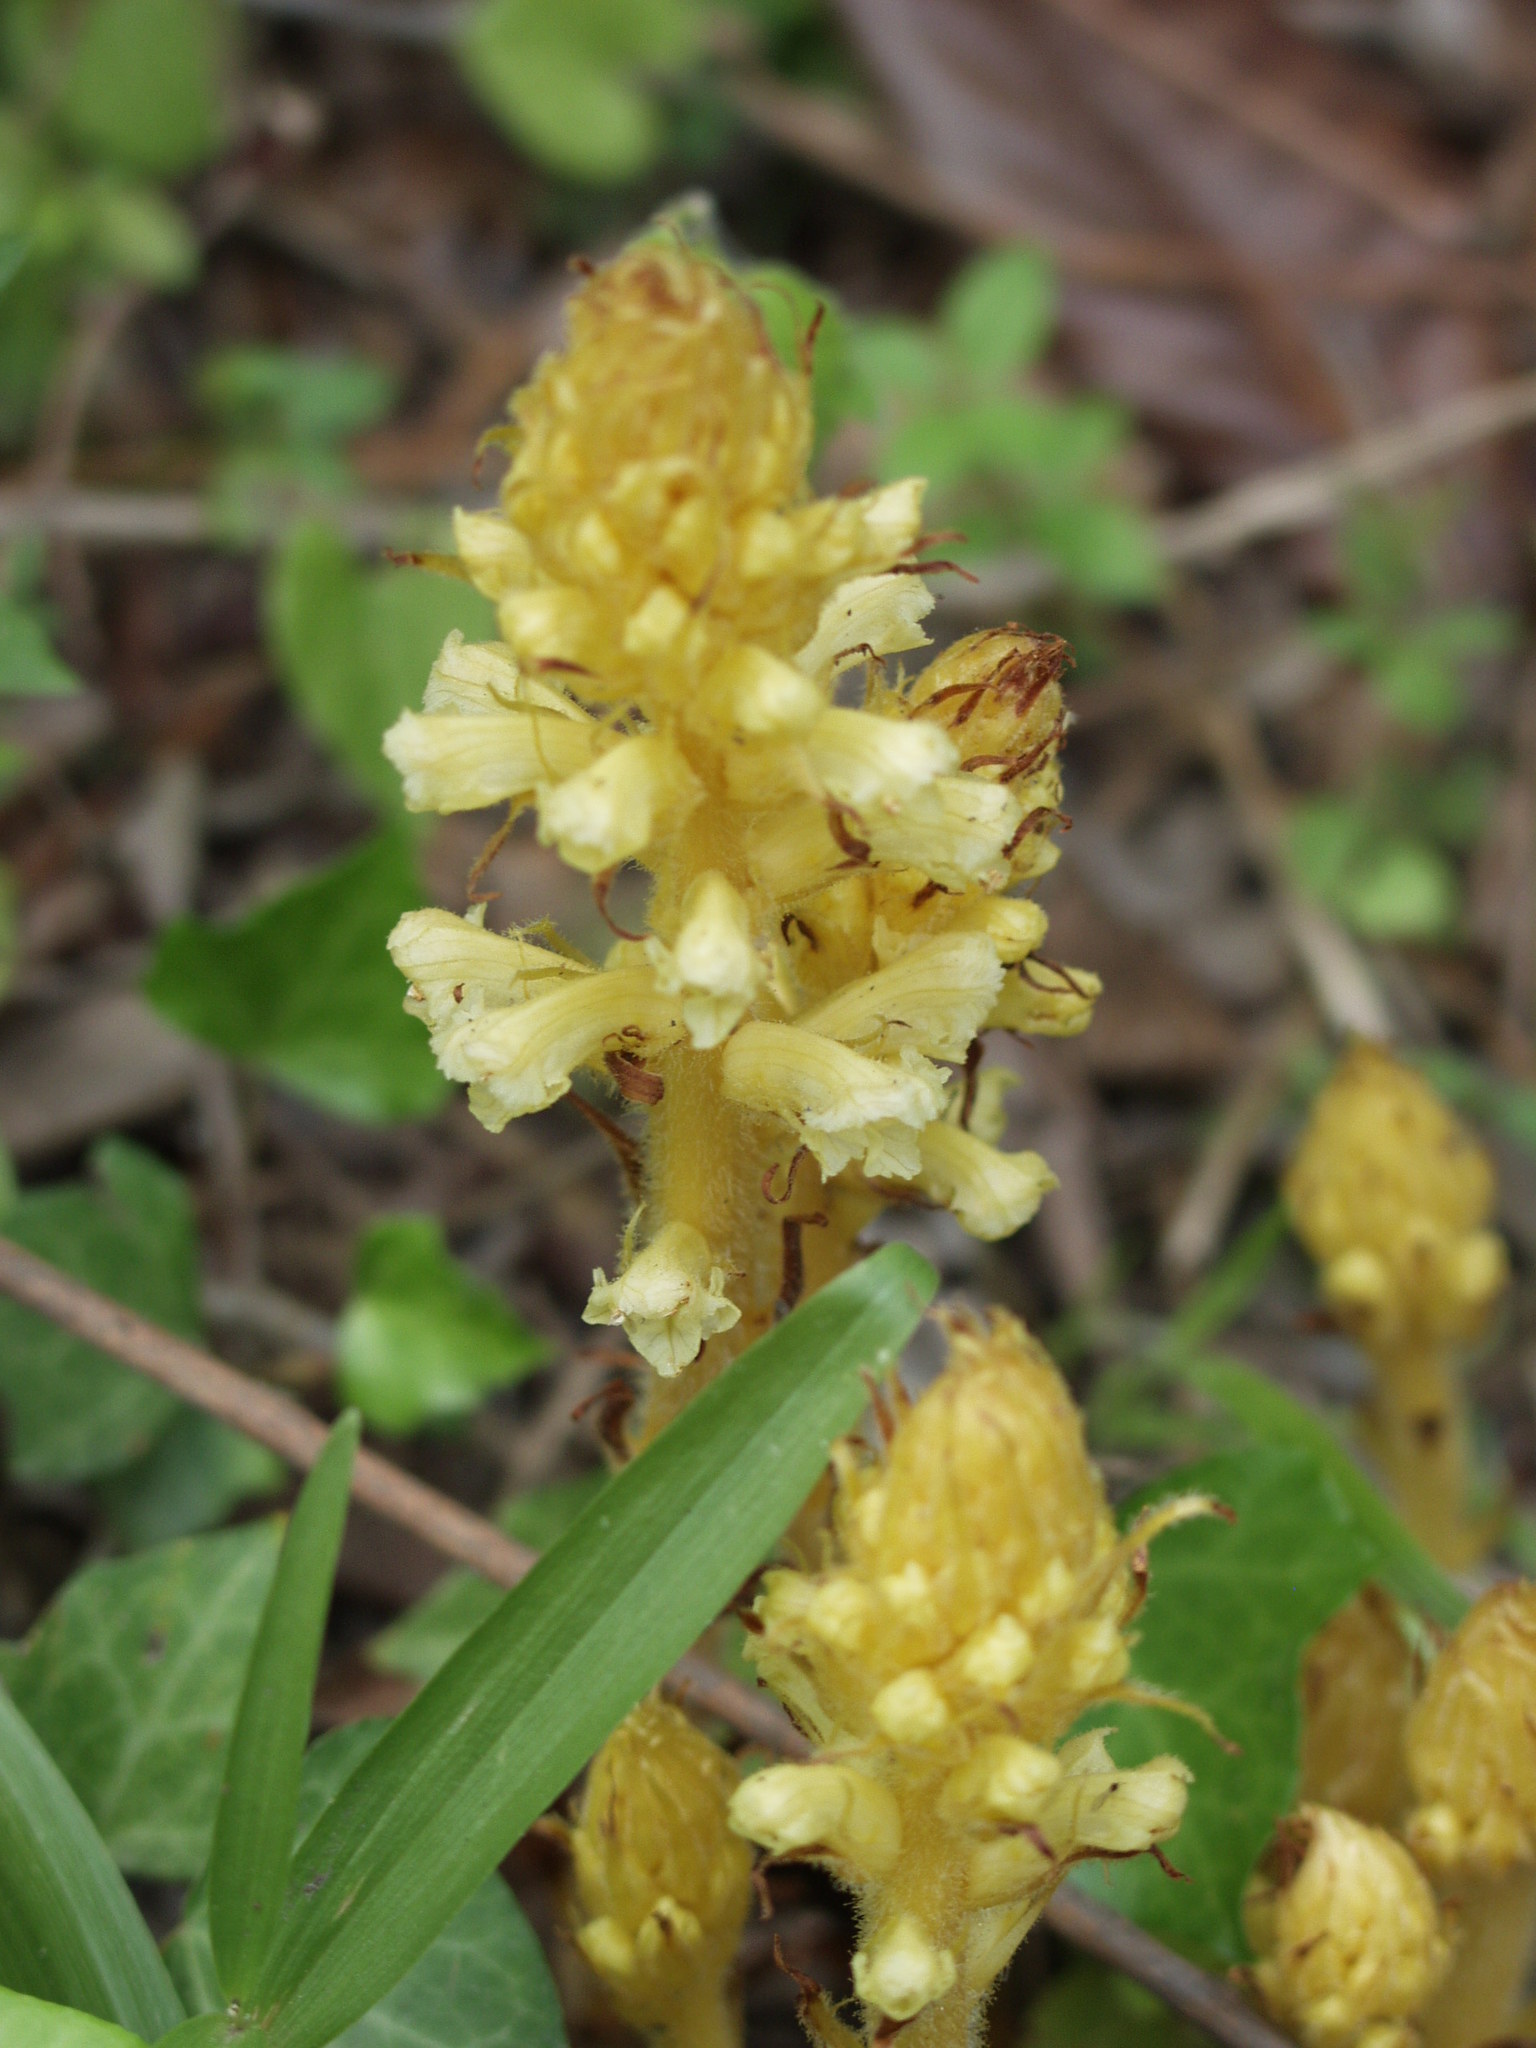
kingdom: Plantae
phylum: Tracheophyta
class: Magnoliopsida
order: Lamiales
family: Orobanchaceae
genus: Orobanche
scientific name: Orobanche hederae
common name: Ivy broomrape
